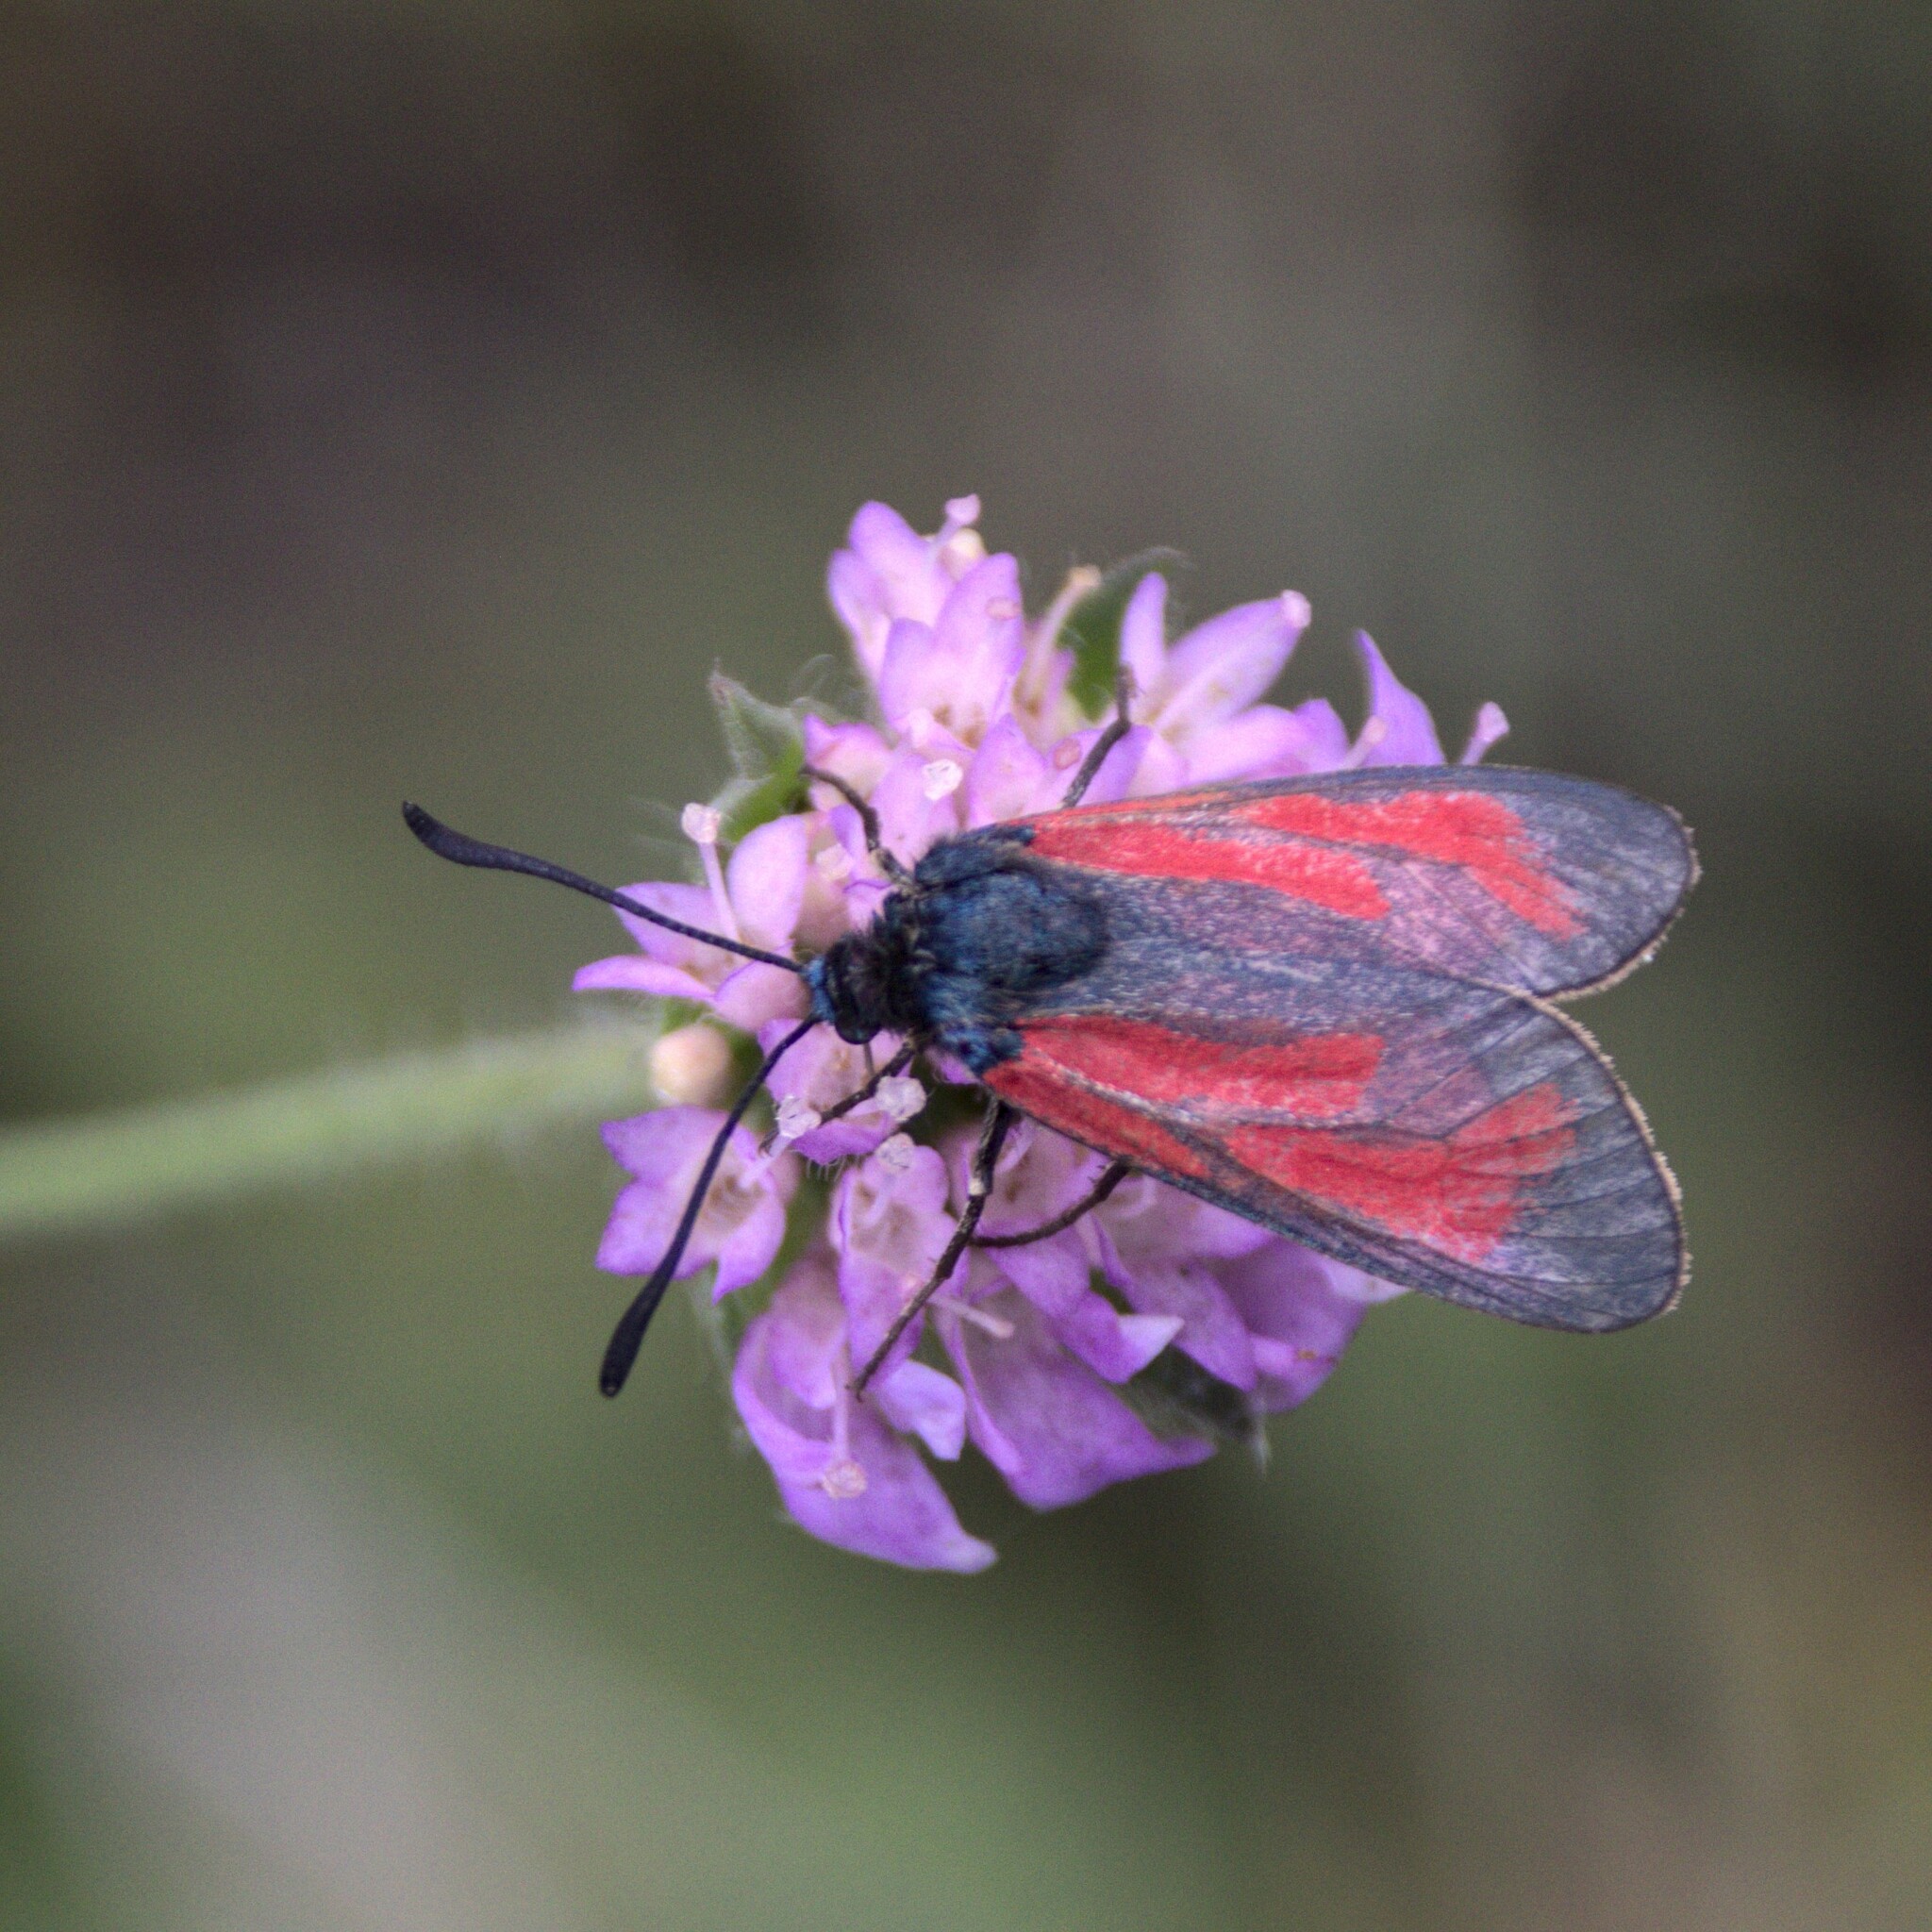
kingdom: Animalia
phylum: Arthropoda
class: Insecta
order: Lepidoptera
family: Zygaenidae
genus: Zygaena
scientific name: Zygaena minos
